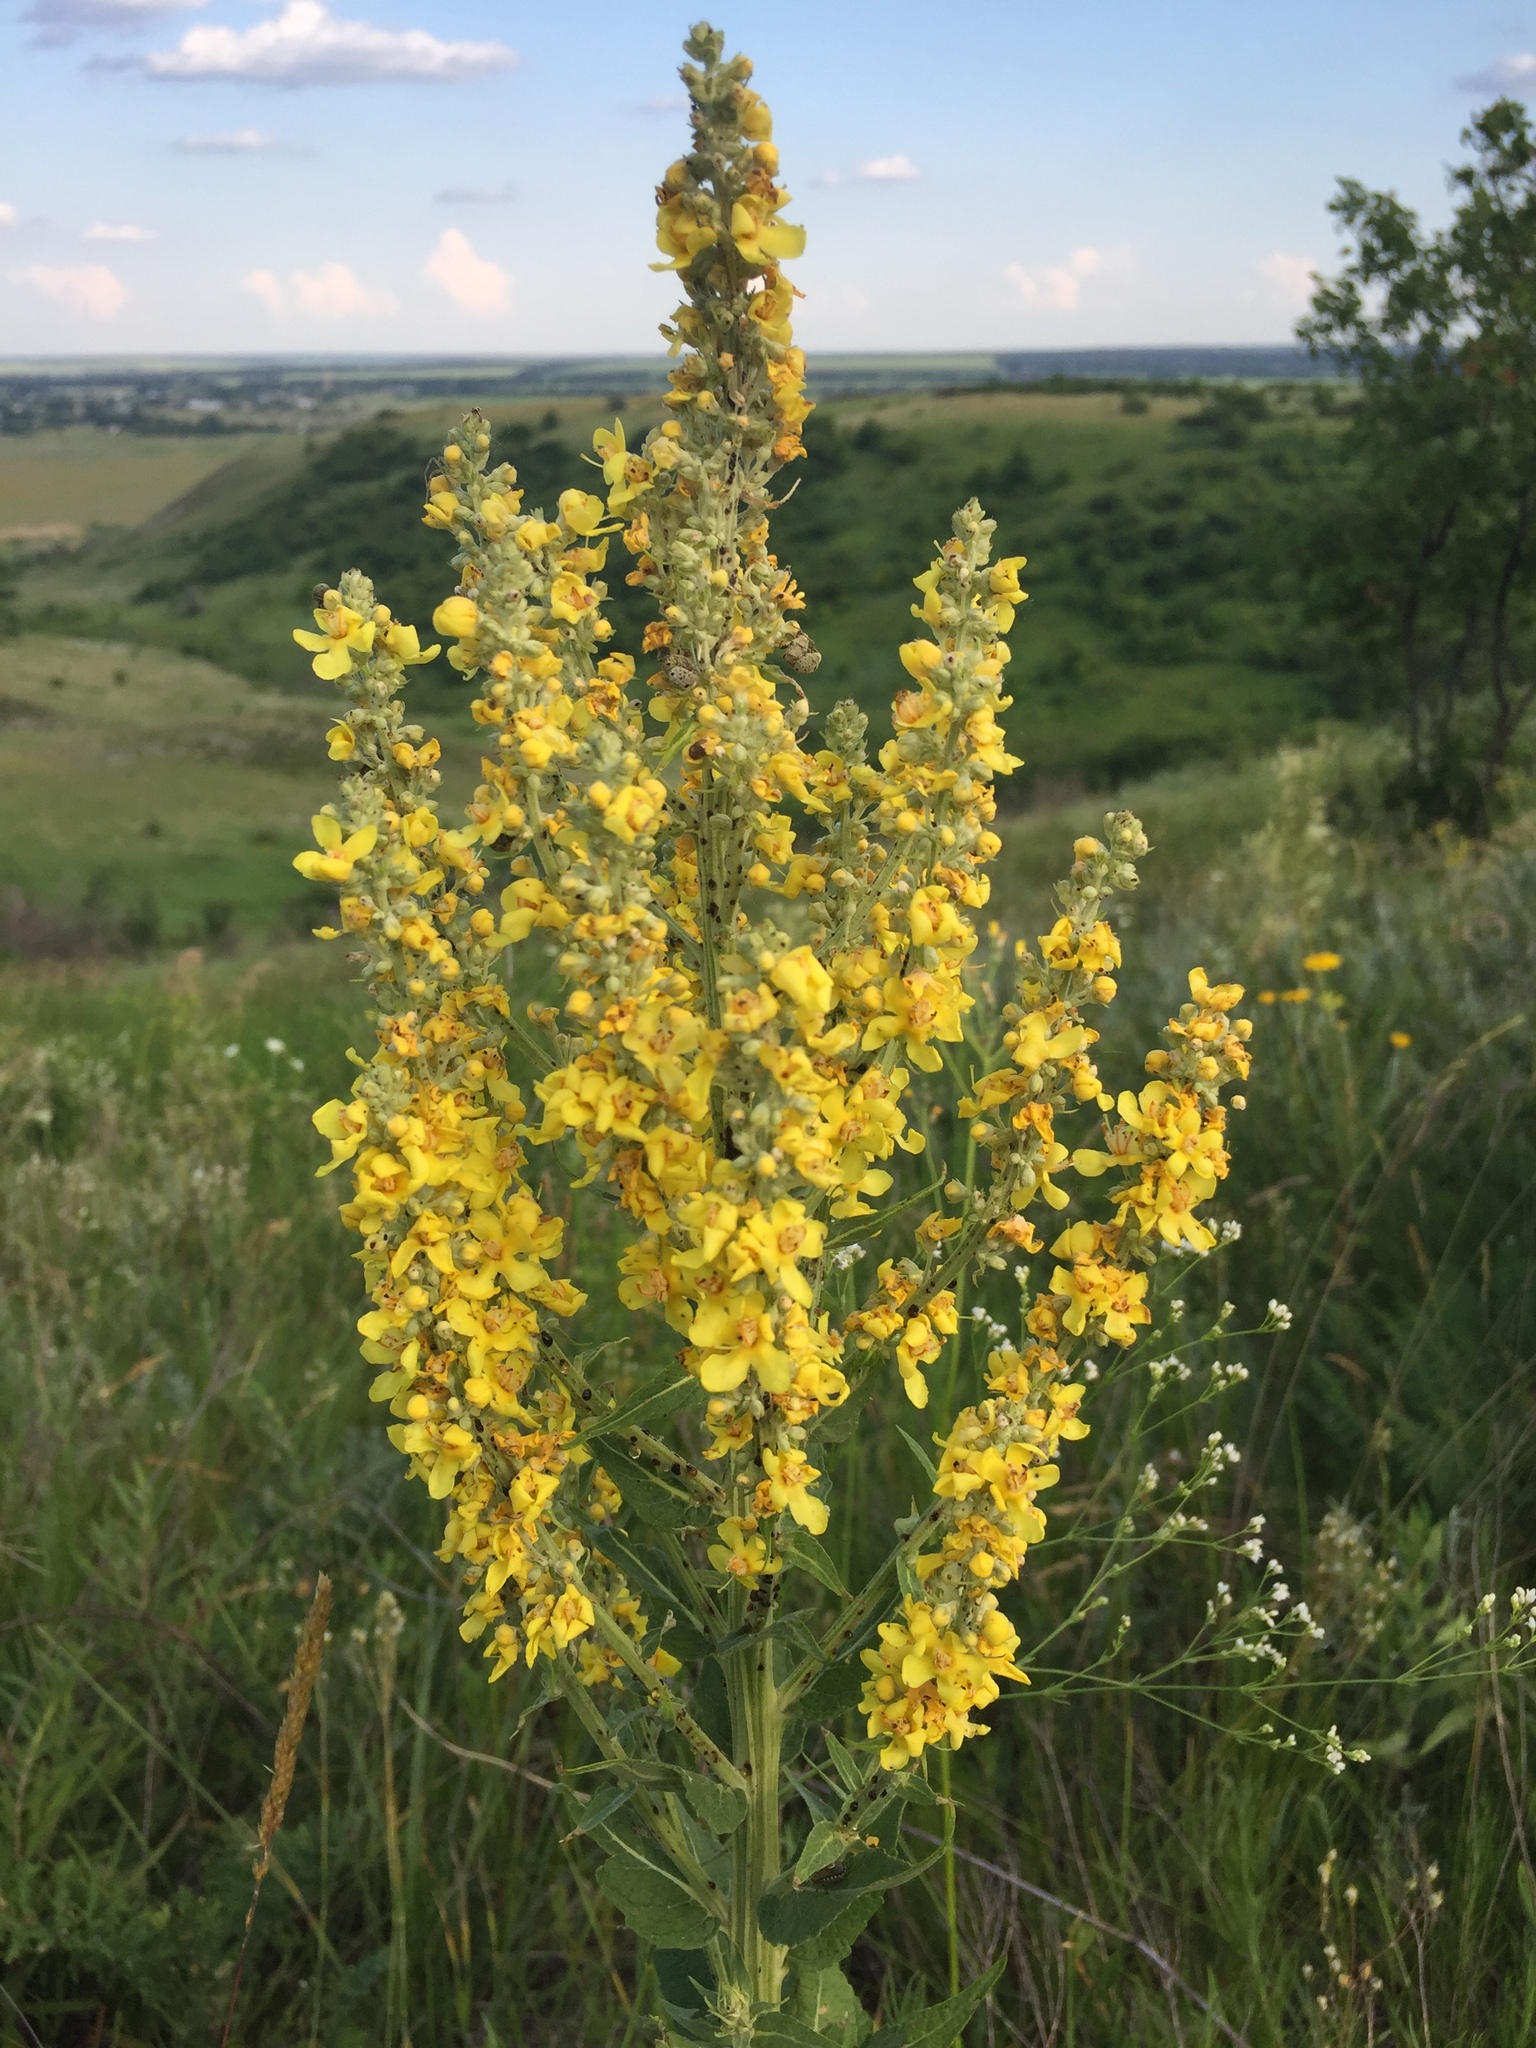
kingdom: Plantae
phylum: Tracheophyta
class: Magnoliopsida
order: Lamiales
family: Scrophulariaceae
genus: Verbascum
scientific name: Verbascum lychnitis
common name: White mullein
